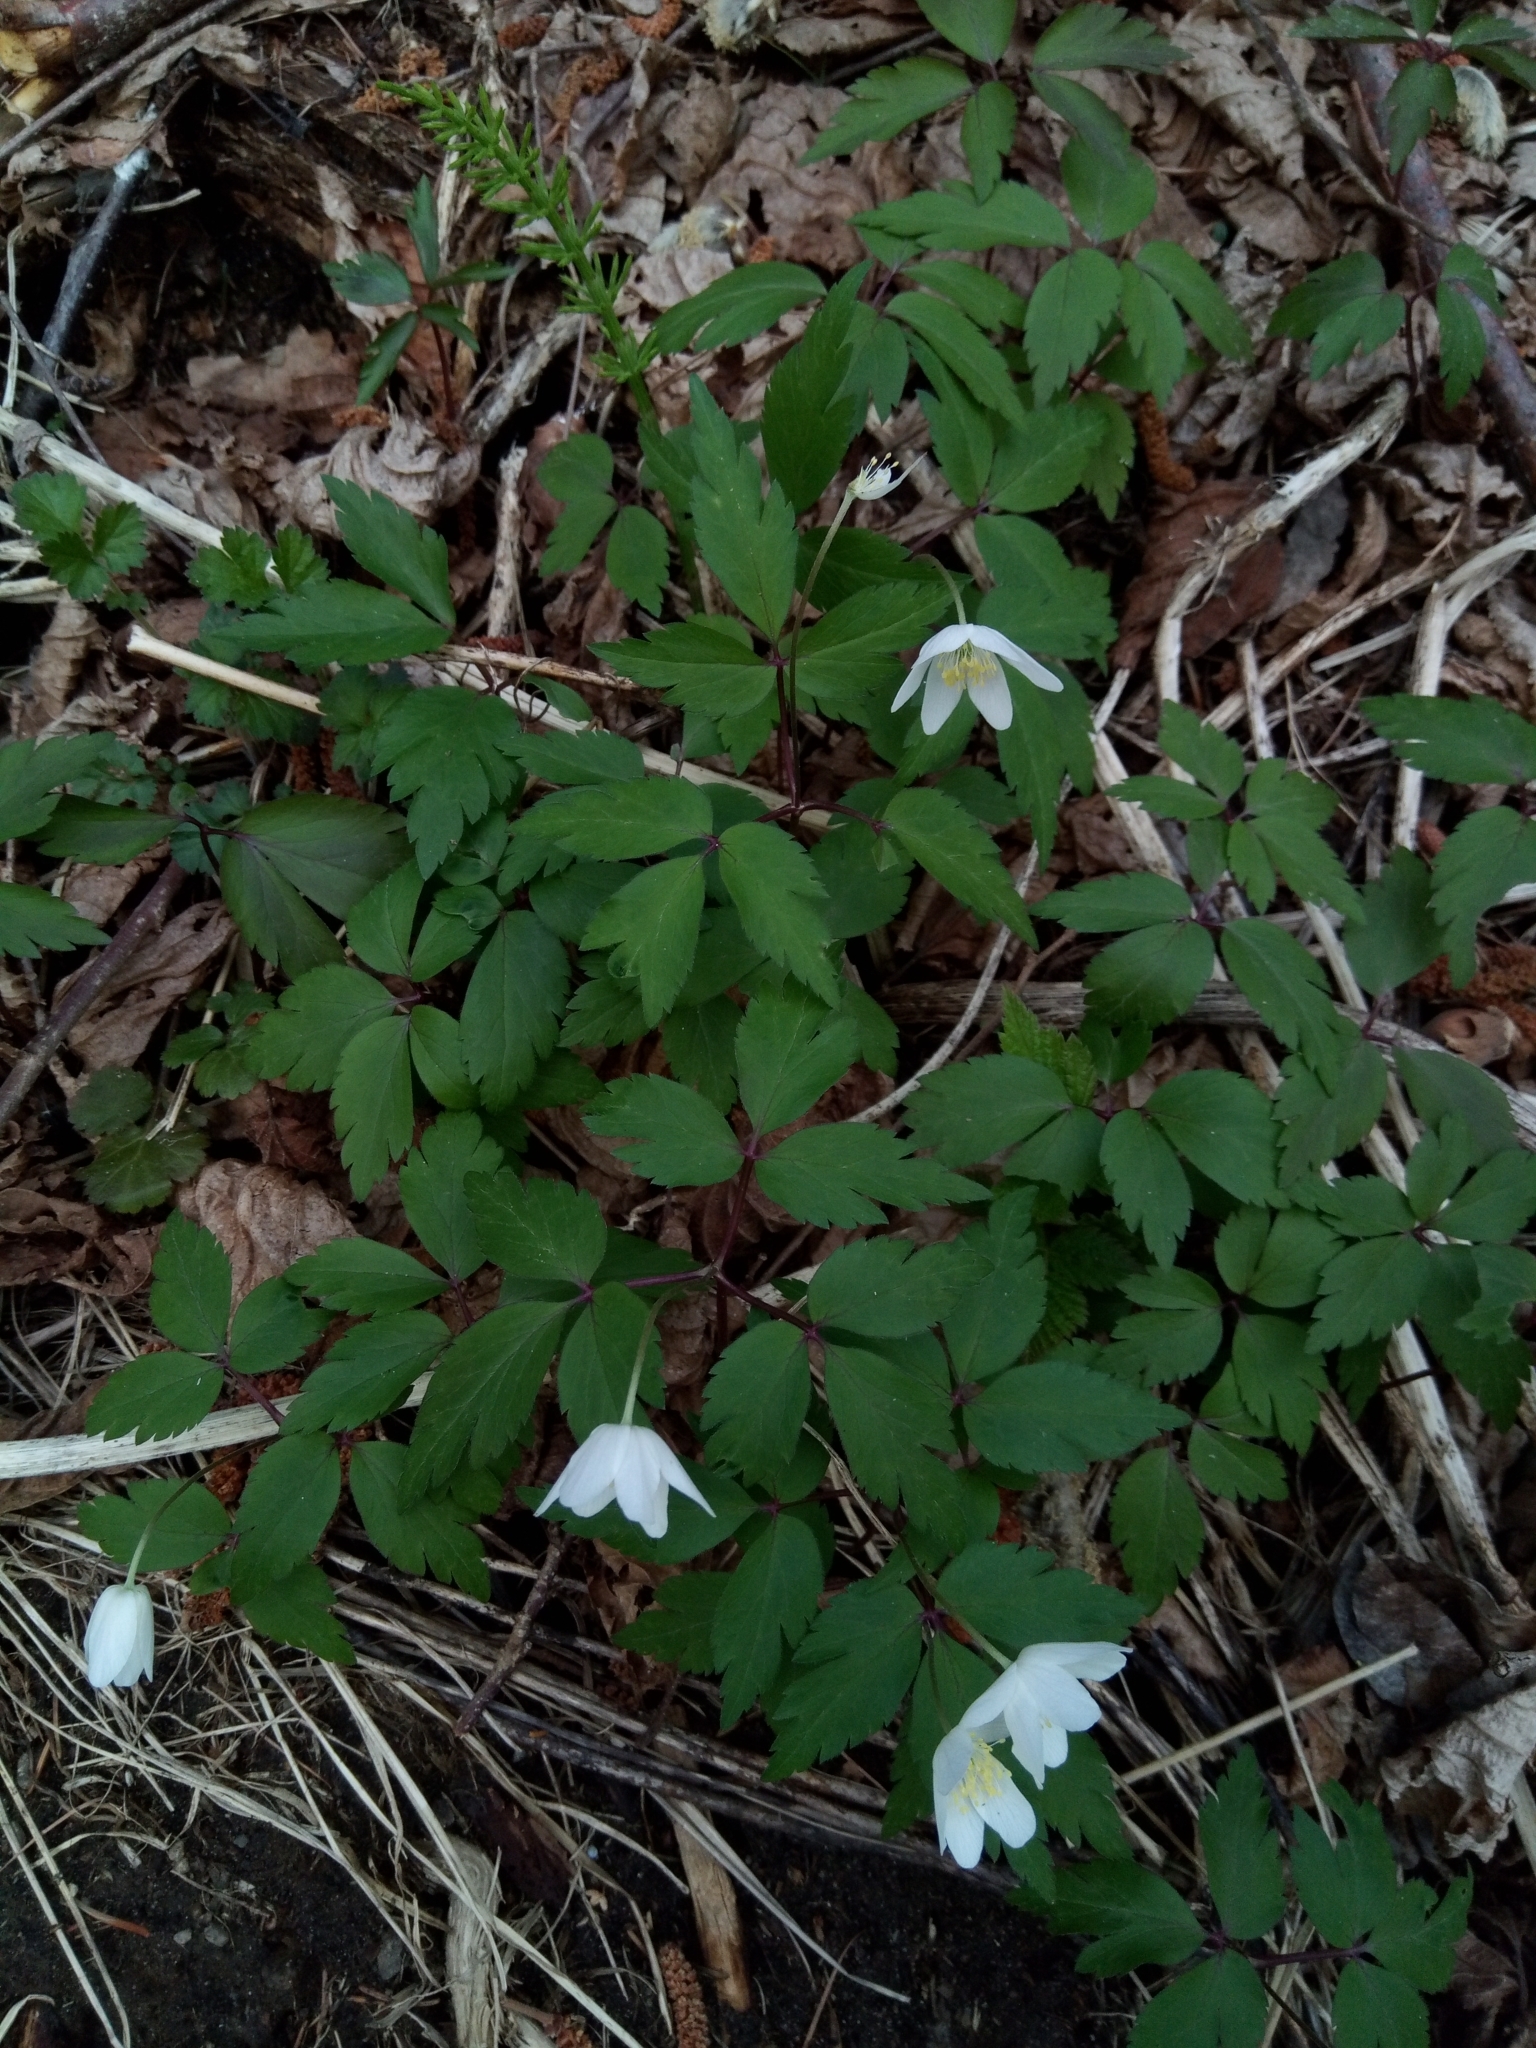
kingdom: Plantae
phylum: Tracheophyta
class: Magnoliopsida
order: Ranunculales
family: Ranunculaceae
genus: Anemone
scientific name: Anemone pittonii
